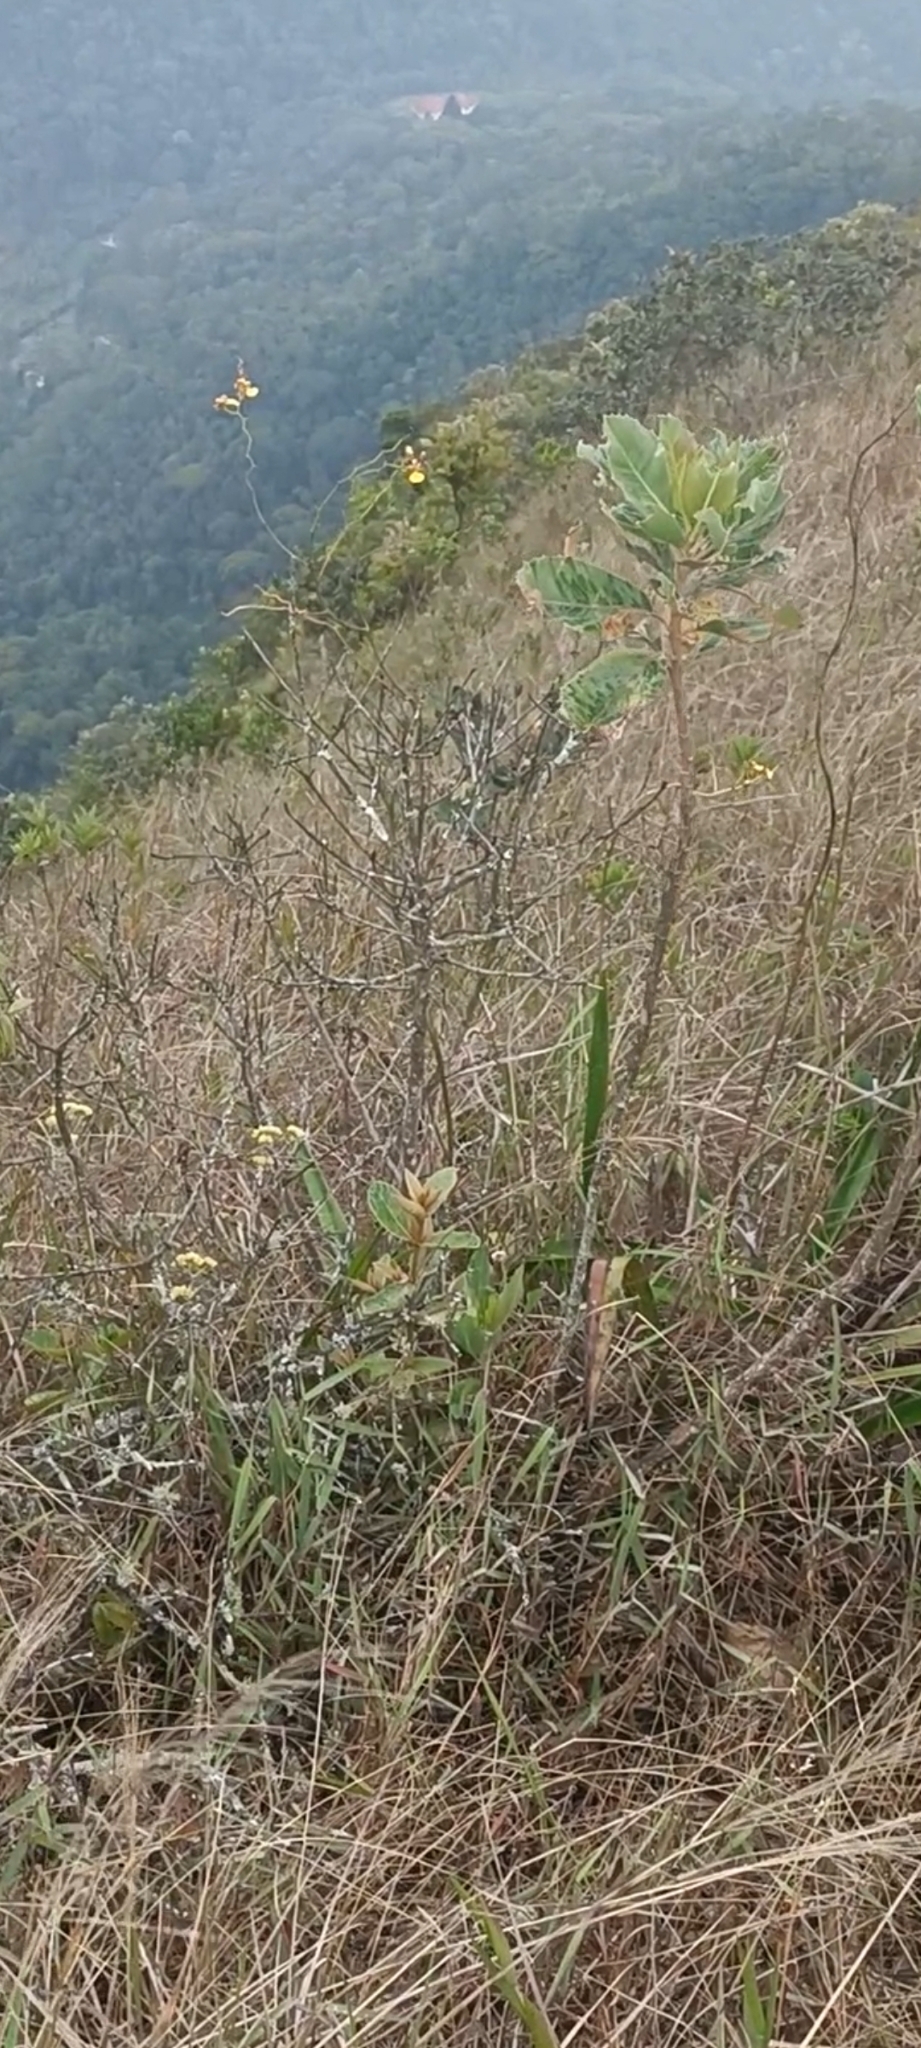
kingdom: Plantae
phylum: Tracheophyta
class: Liliopsida
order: Asparagales
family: Orchidaceae
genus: Gomesa
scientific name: Gomesa hydrophila
